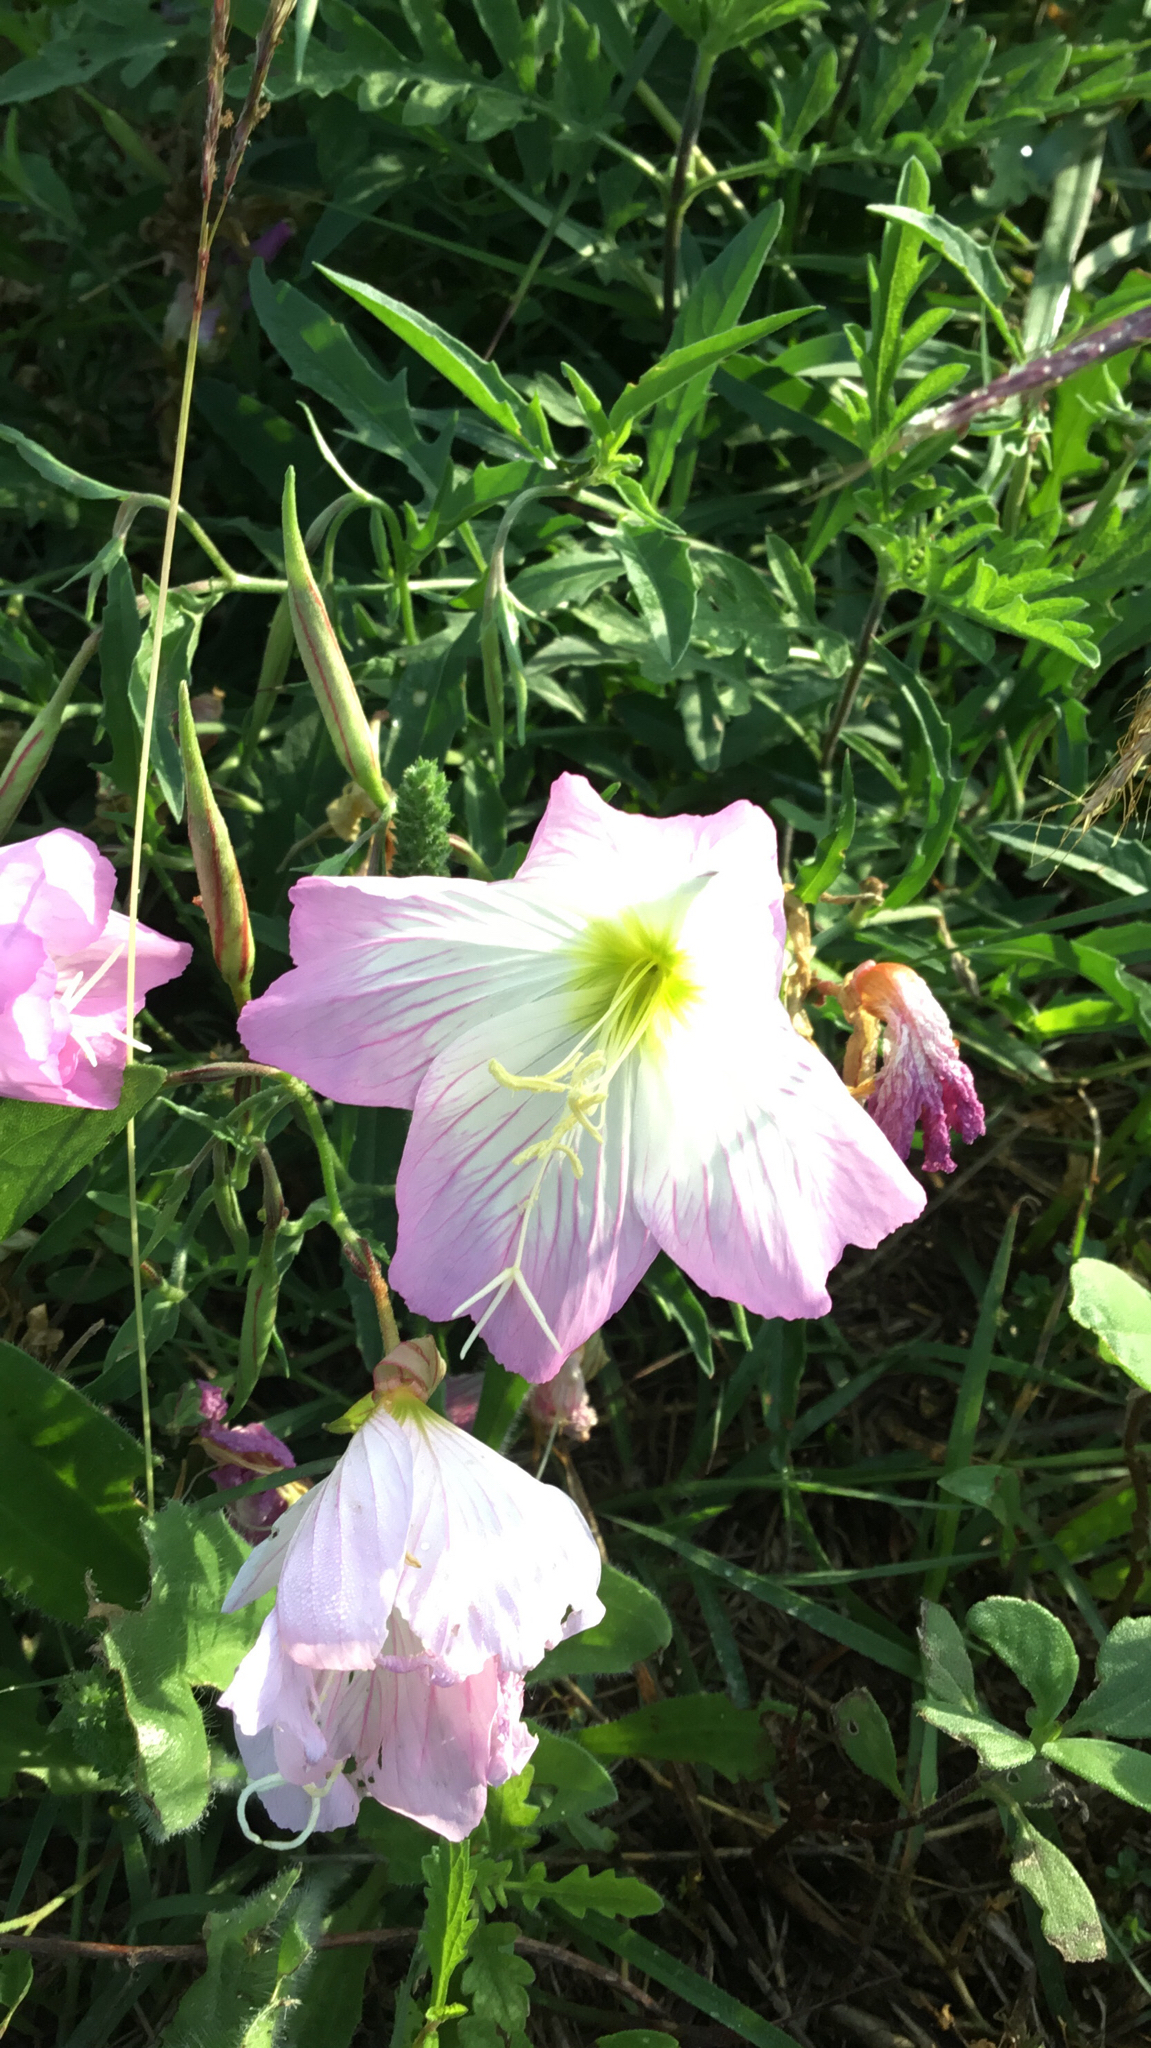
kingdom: Plantae
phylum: Tracheophyta
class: Magnoliopsida
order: Myrtales
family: Onagraceae
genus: Oenothera
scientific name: Oenothera speciosa
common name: White evening-primrose
